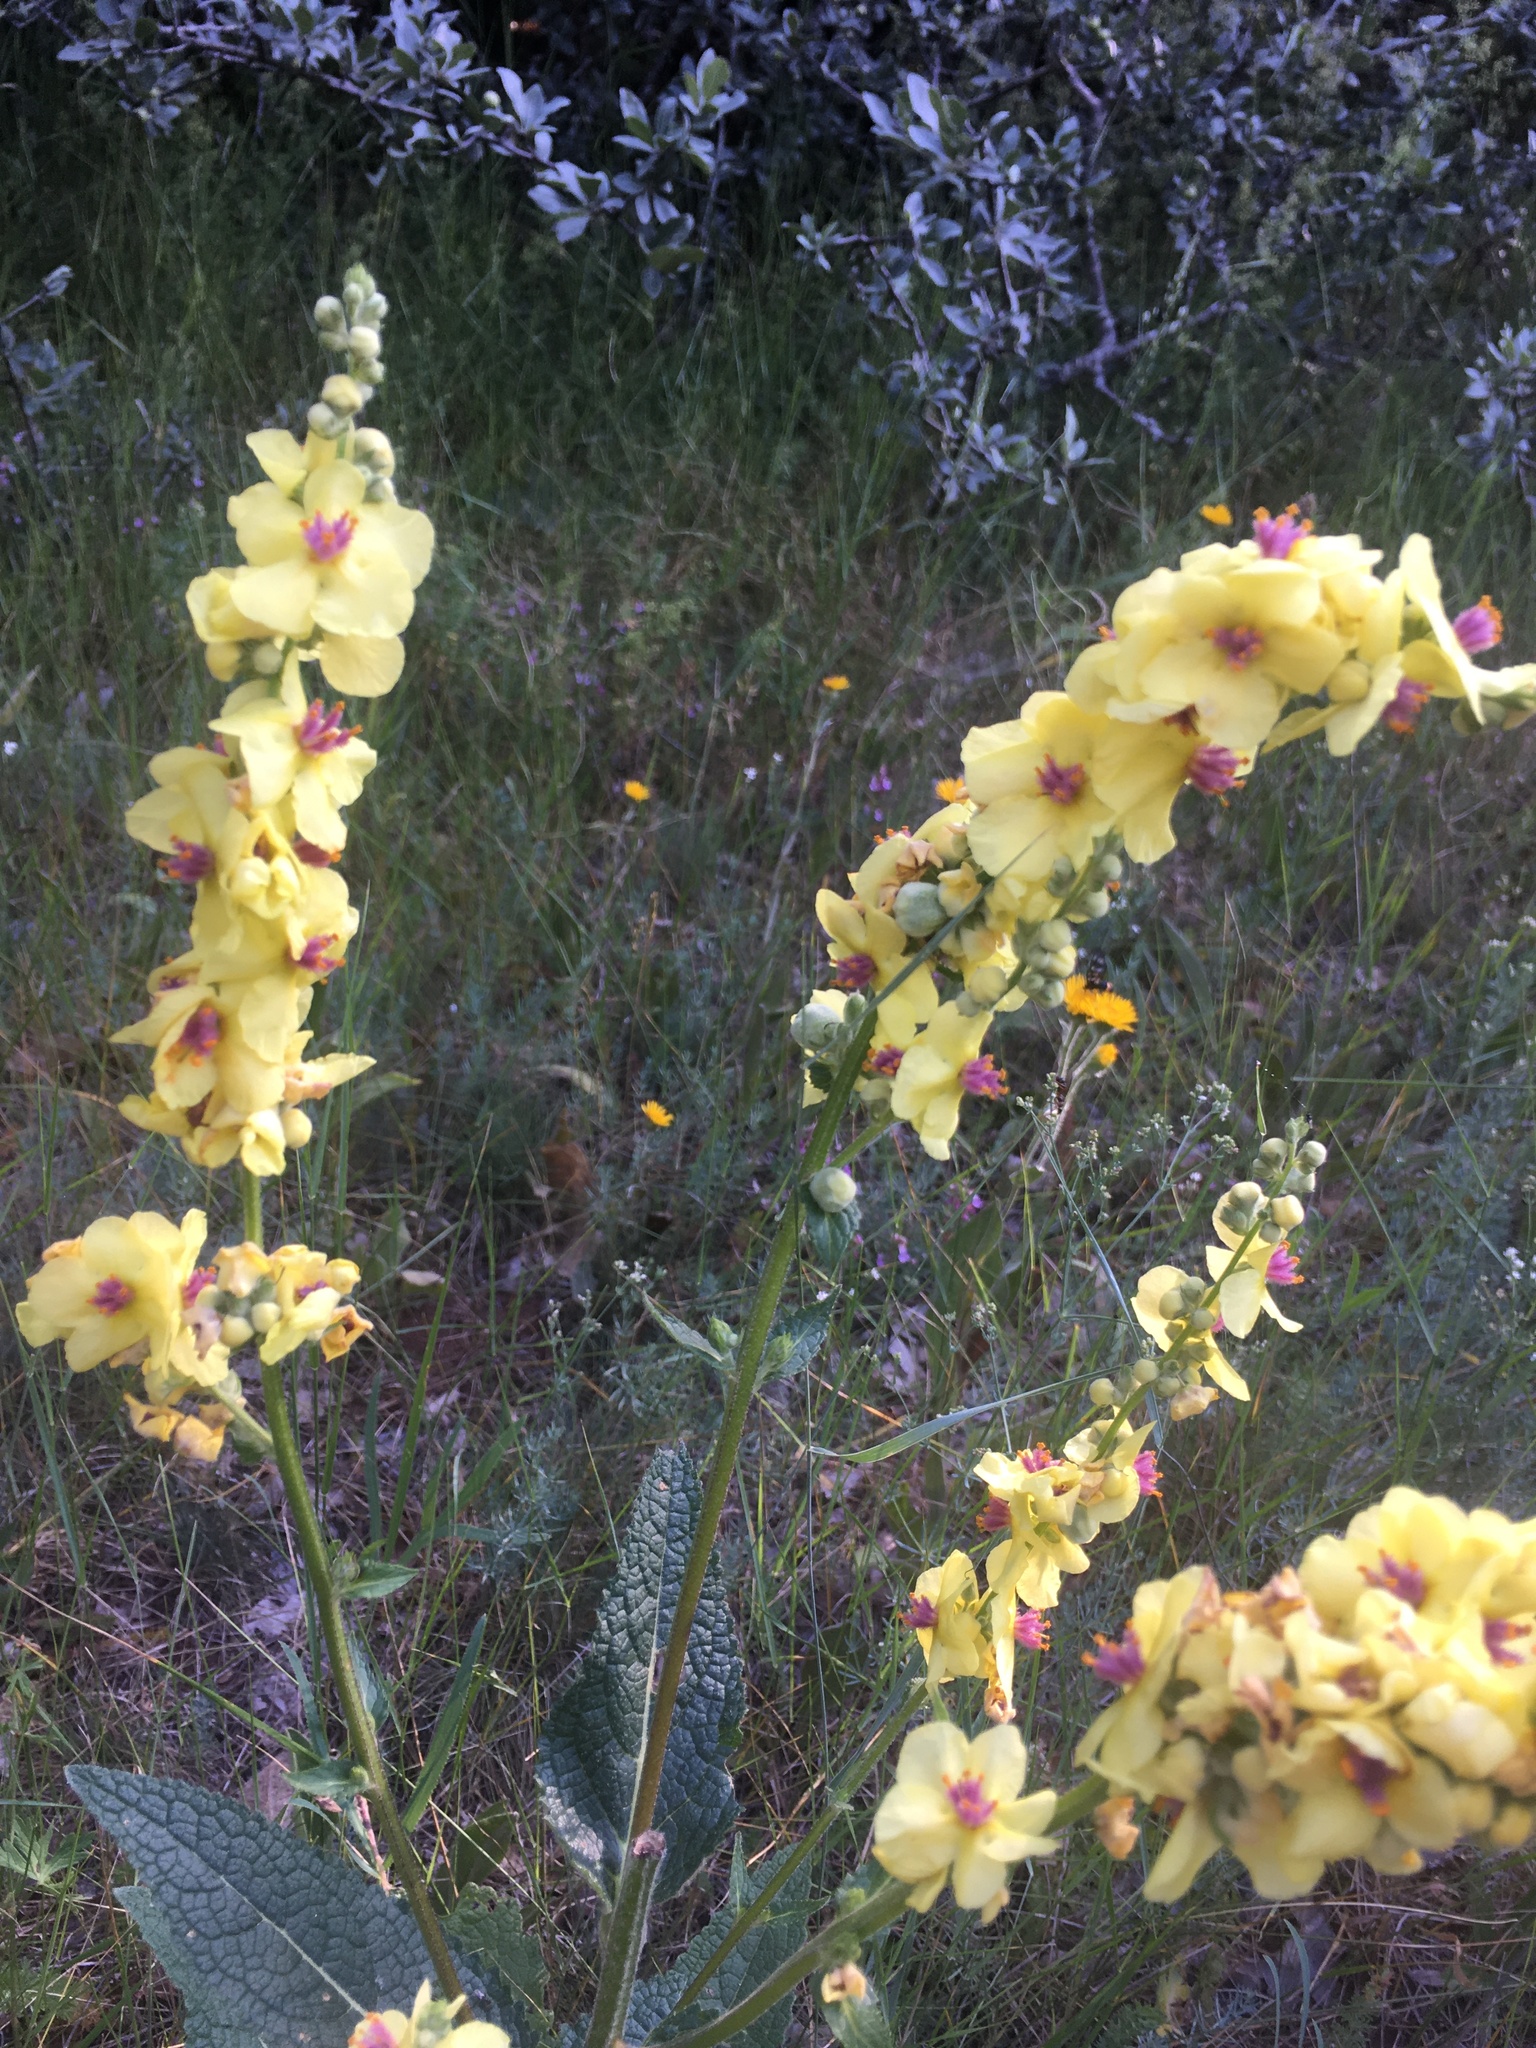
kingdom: Plantae
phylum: Tracheophyta
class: Magnoliopsida
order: Lamiales
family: Scrophulariaceae
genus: Verbascum
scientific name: Verbascum chaixii
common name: Nettle-leaved mullein
